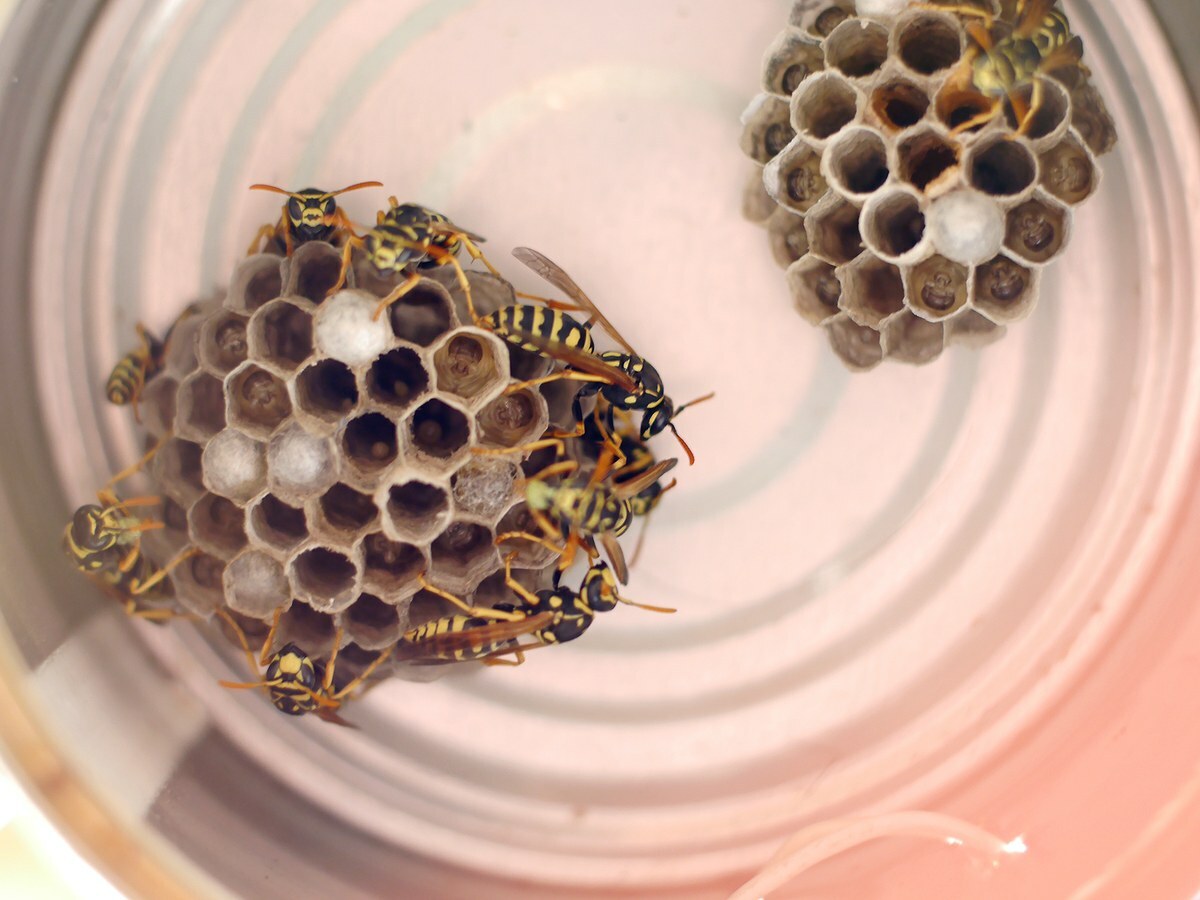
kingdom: Animalia
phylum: Arthropoda
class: Insecta
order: Hymenoptera
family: Eumenidae
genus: Polistes
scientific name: Polistes dominula
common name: Paper wasp
